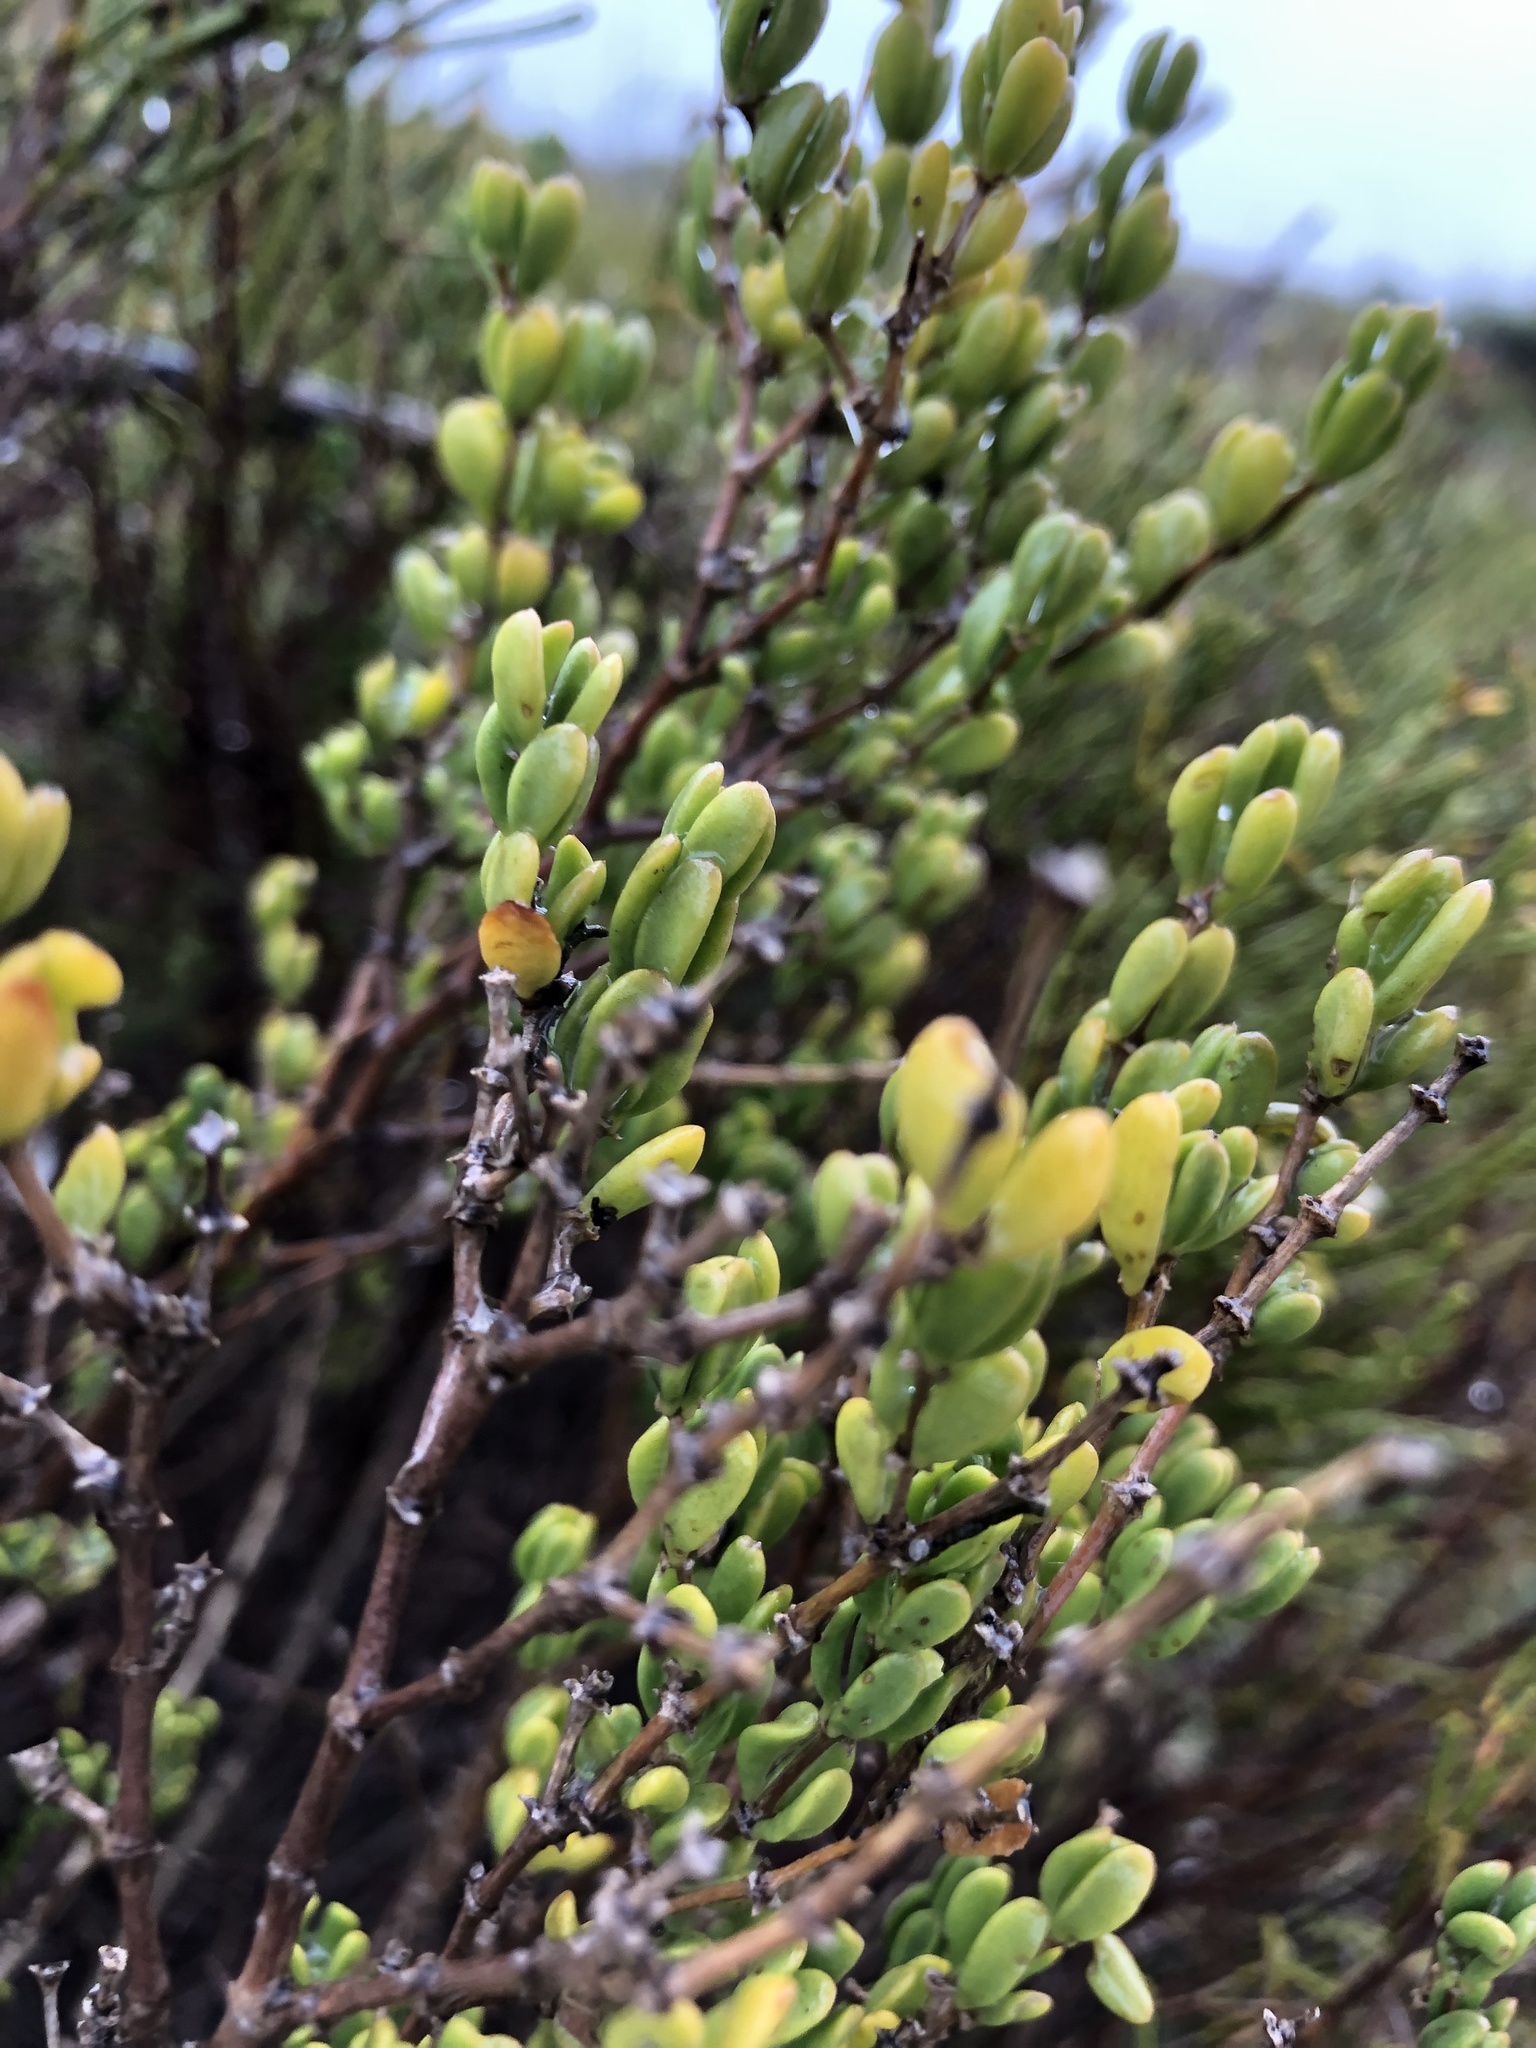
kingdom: Plantae
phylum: Tracheophyta
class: Magnoliopsida
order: Zygophyllales
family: Zygophyllaceae
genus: Roepera
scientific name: Roepera flexuosa
